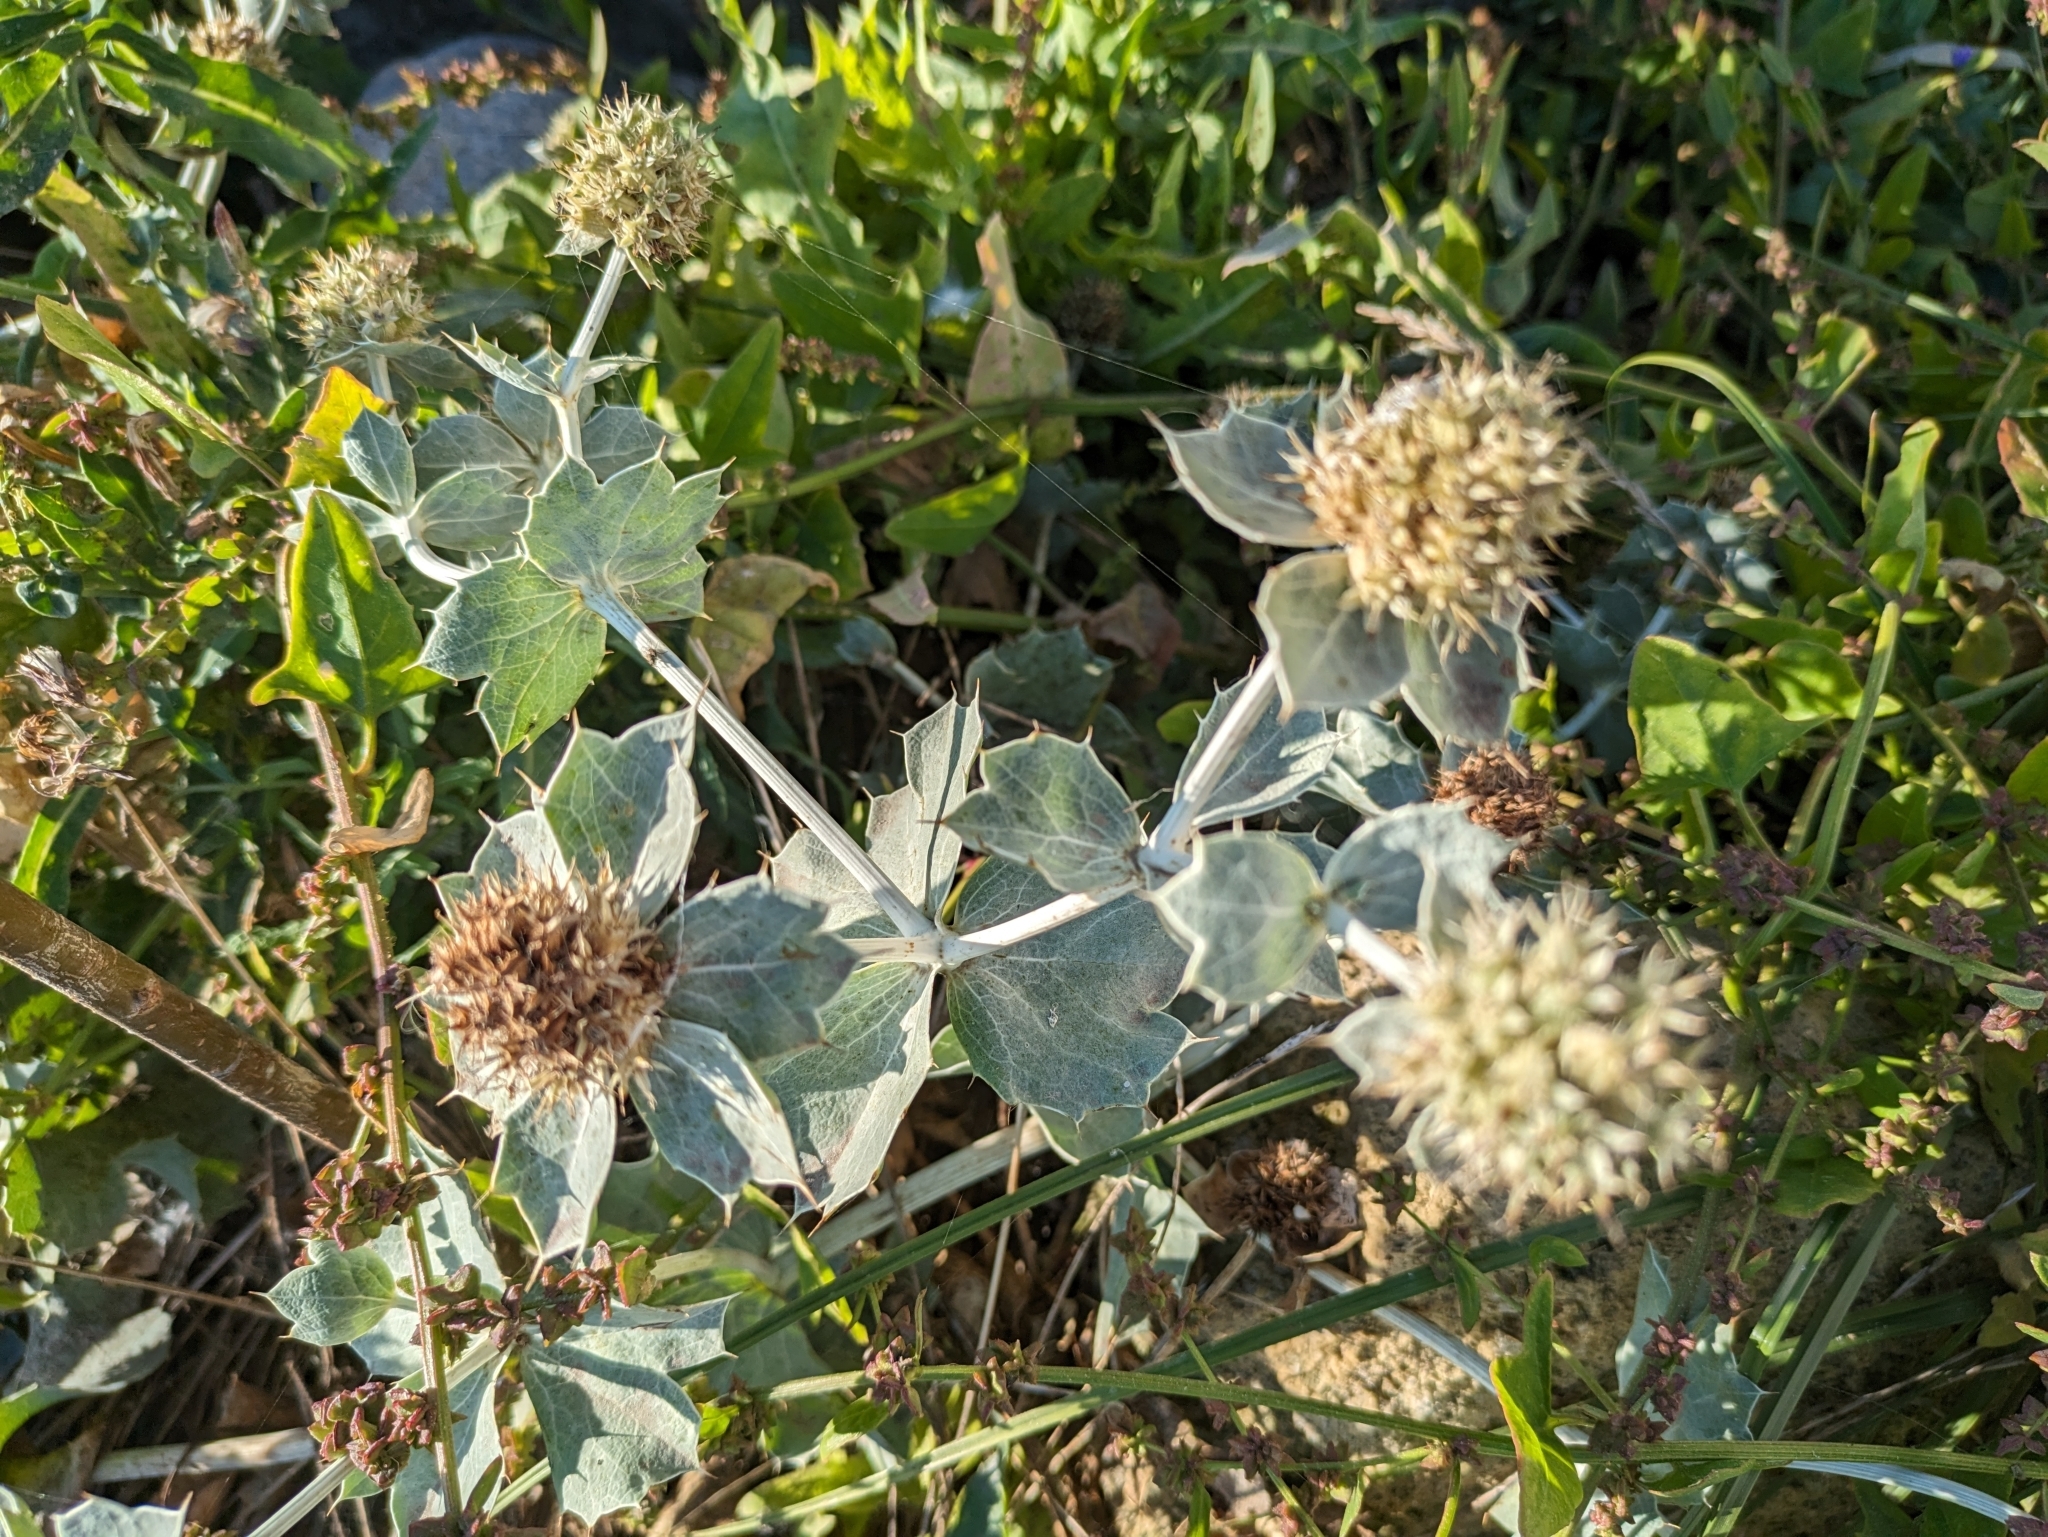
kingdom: Plantae
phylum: Tracheophyta
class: Magnoliopsida
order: Apiales
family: Apiaceae
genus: Eryngium
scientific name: Eryngium maritimum
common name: Sea-holly
